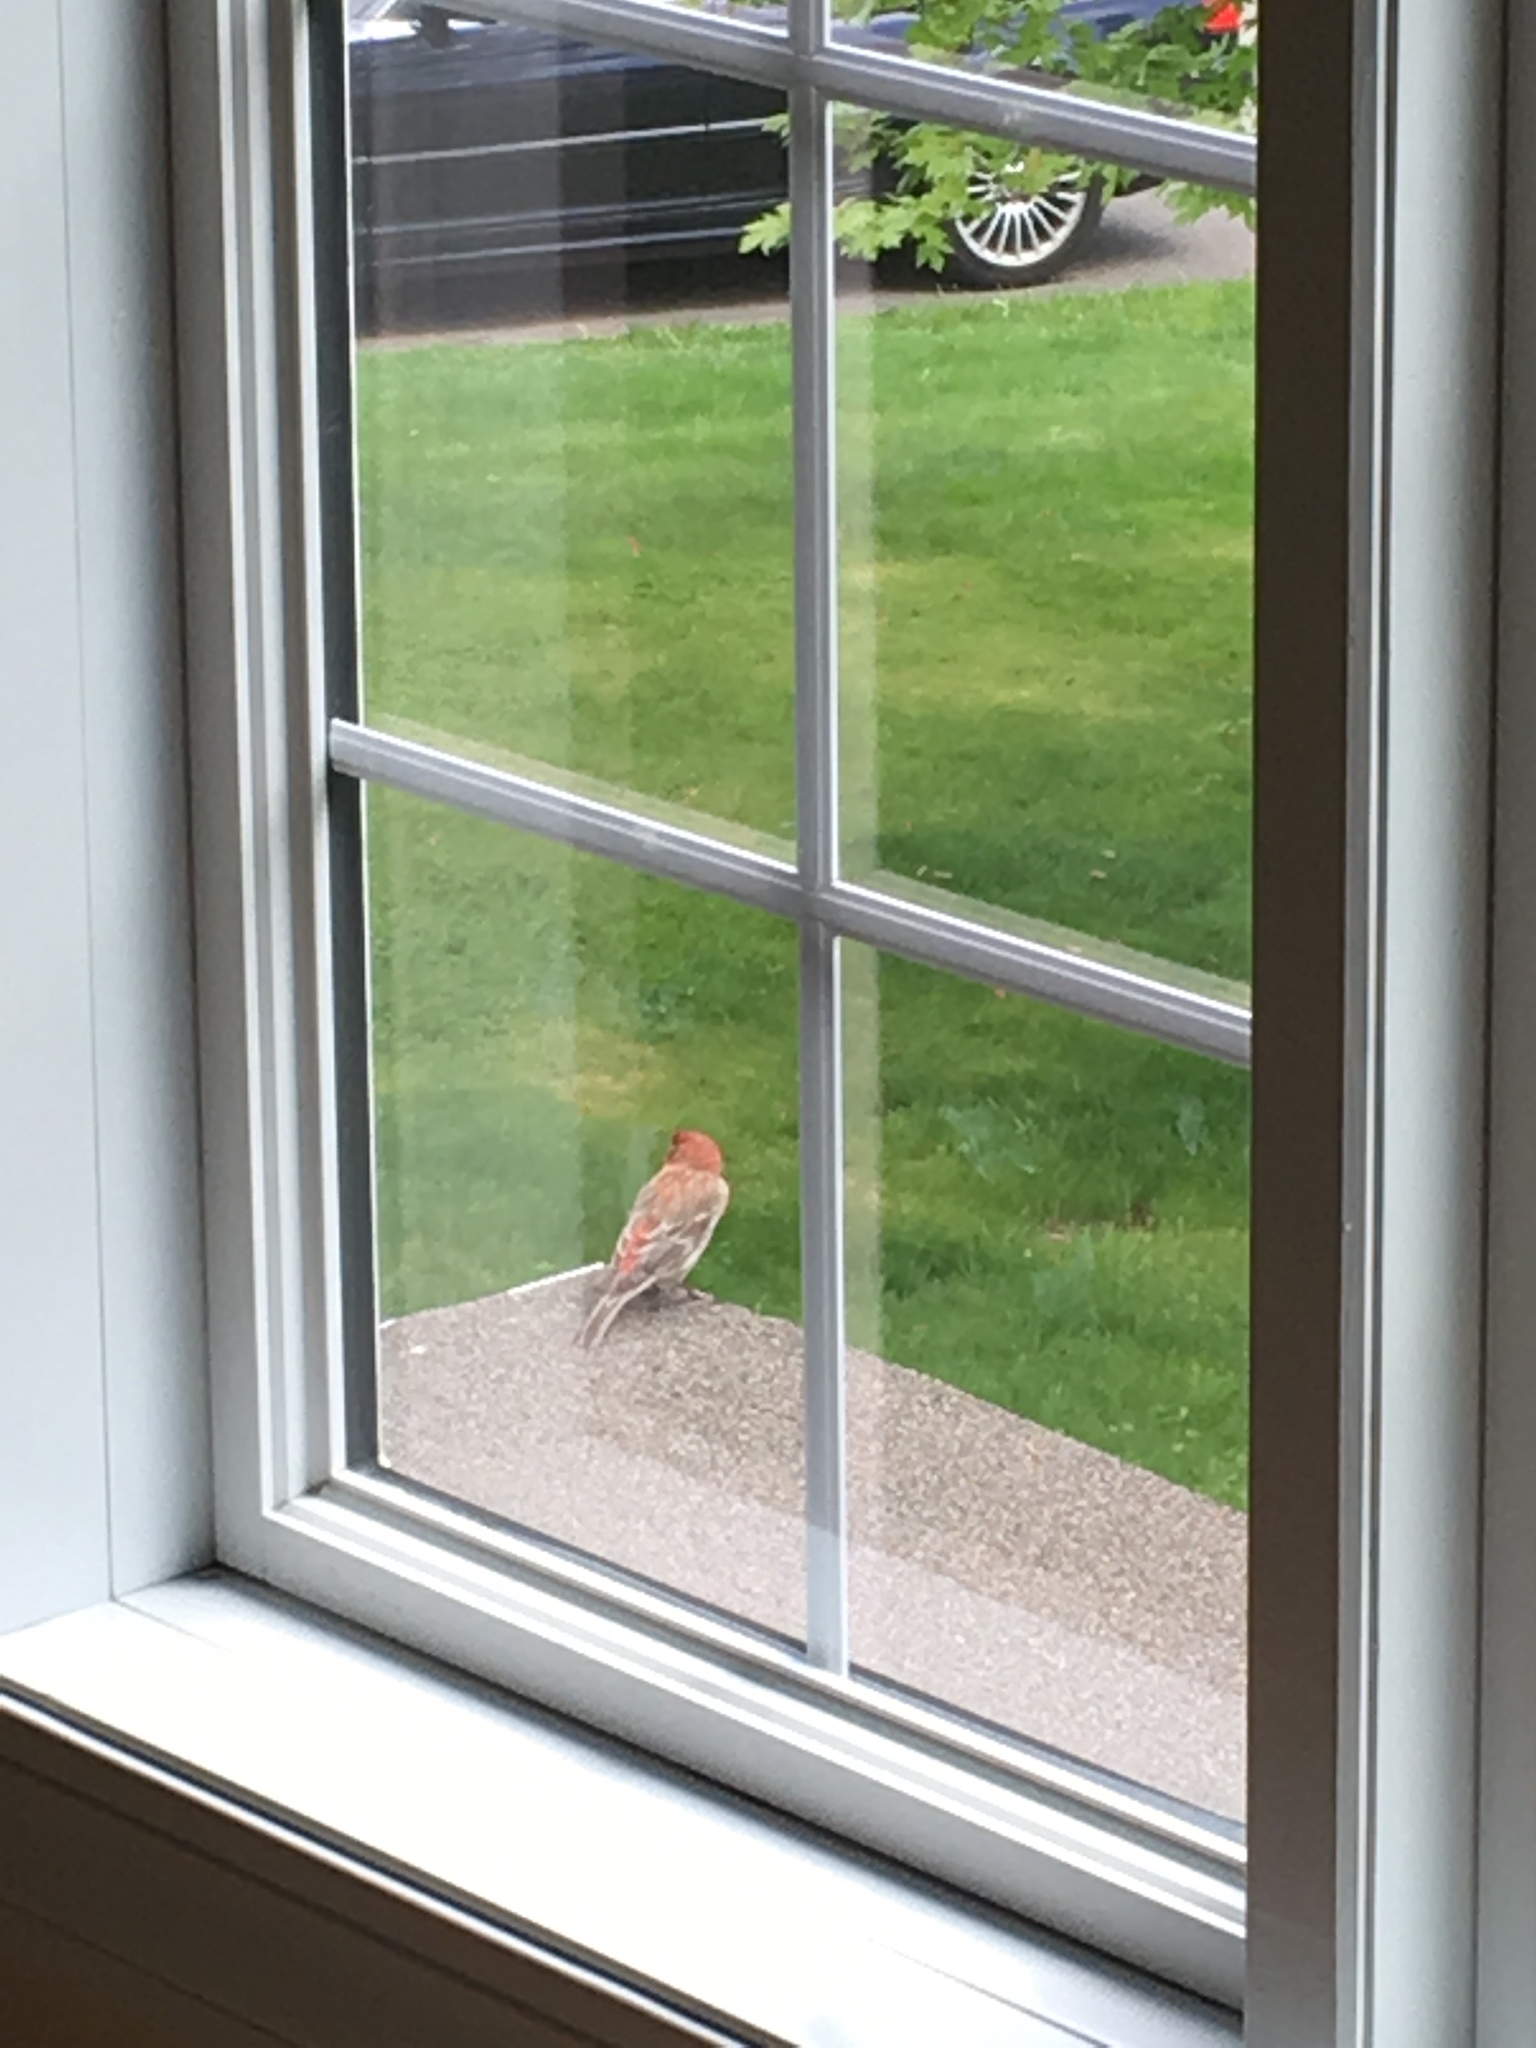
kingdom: Animalia
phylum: Chordata
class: Aves
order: Passeriformes
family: Fringillidae
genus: Haemorhous
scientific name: Haemorhous mexicanus
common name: House finch
